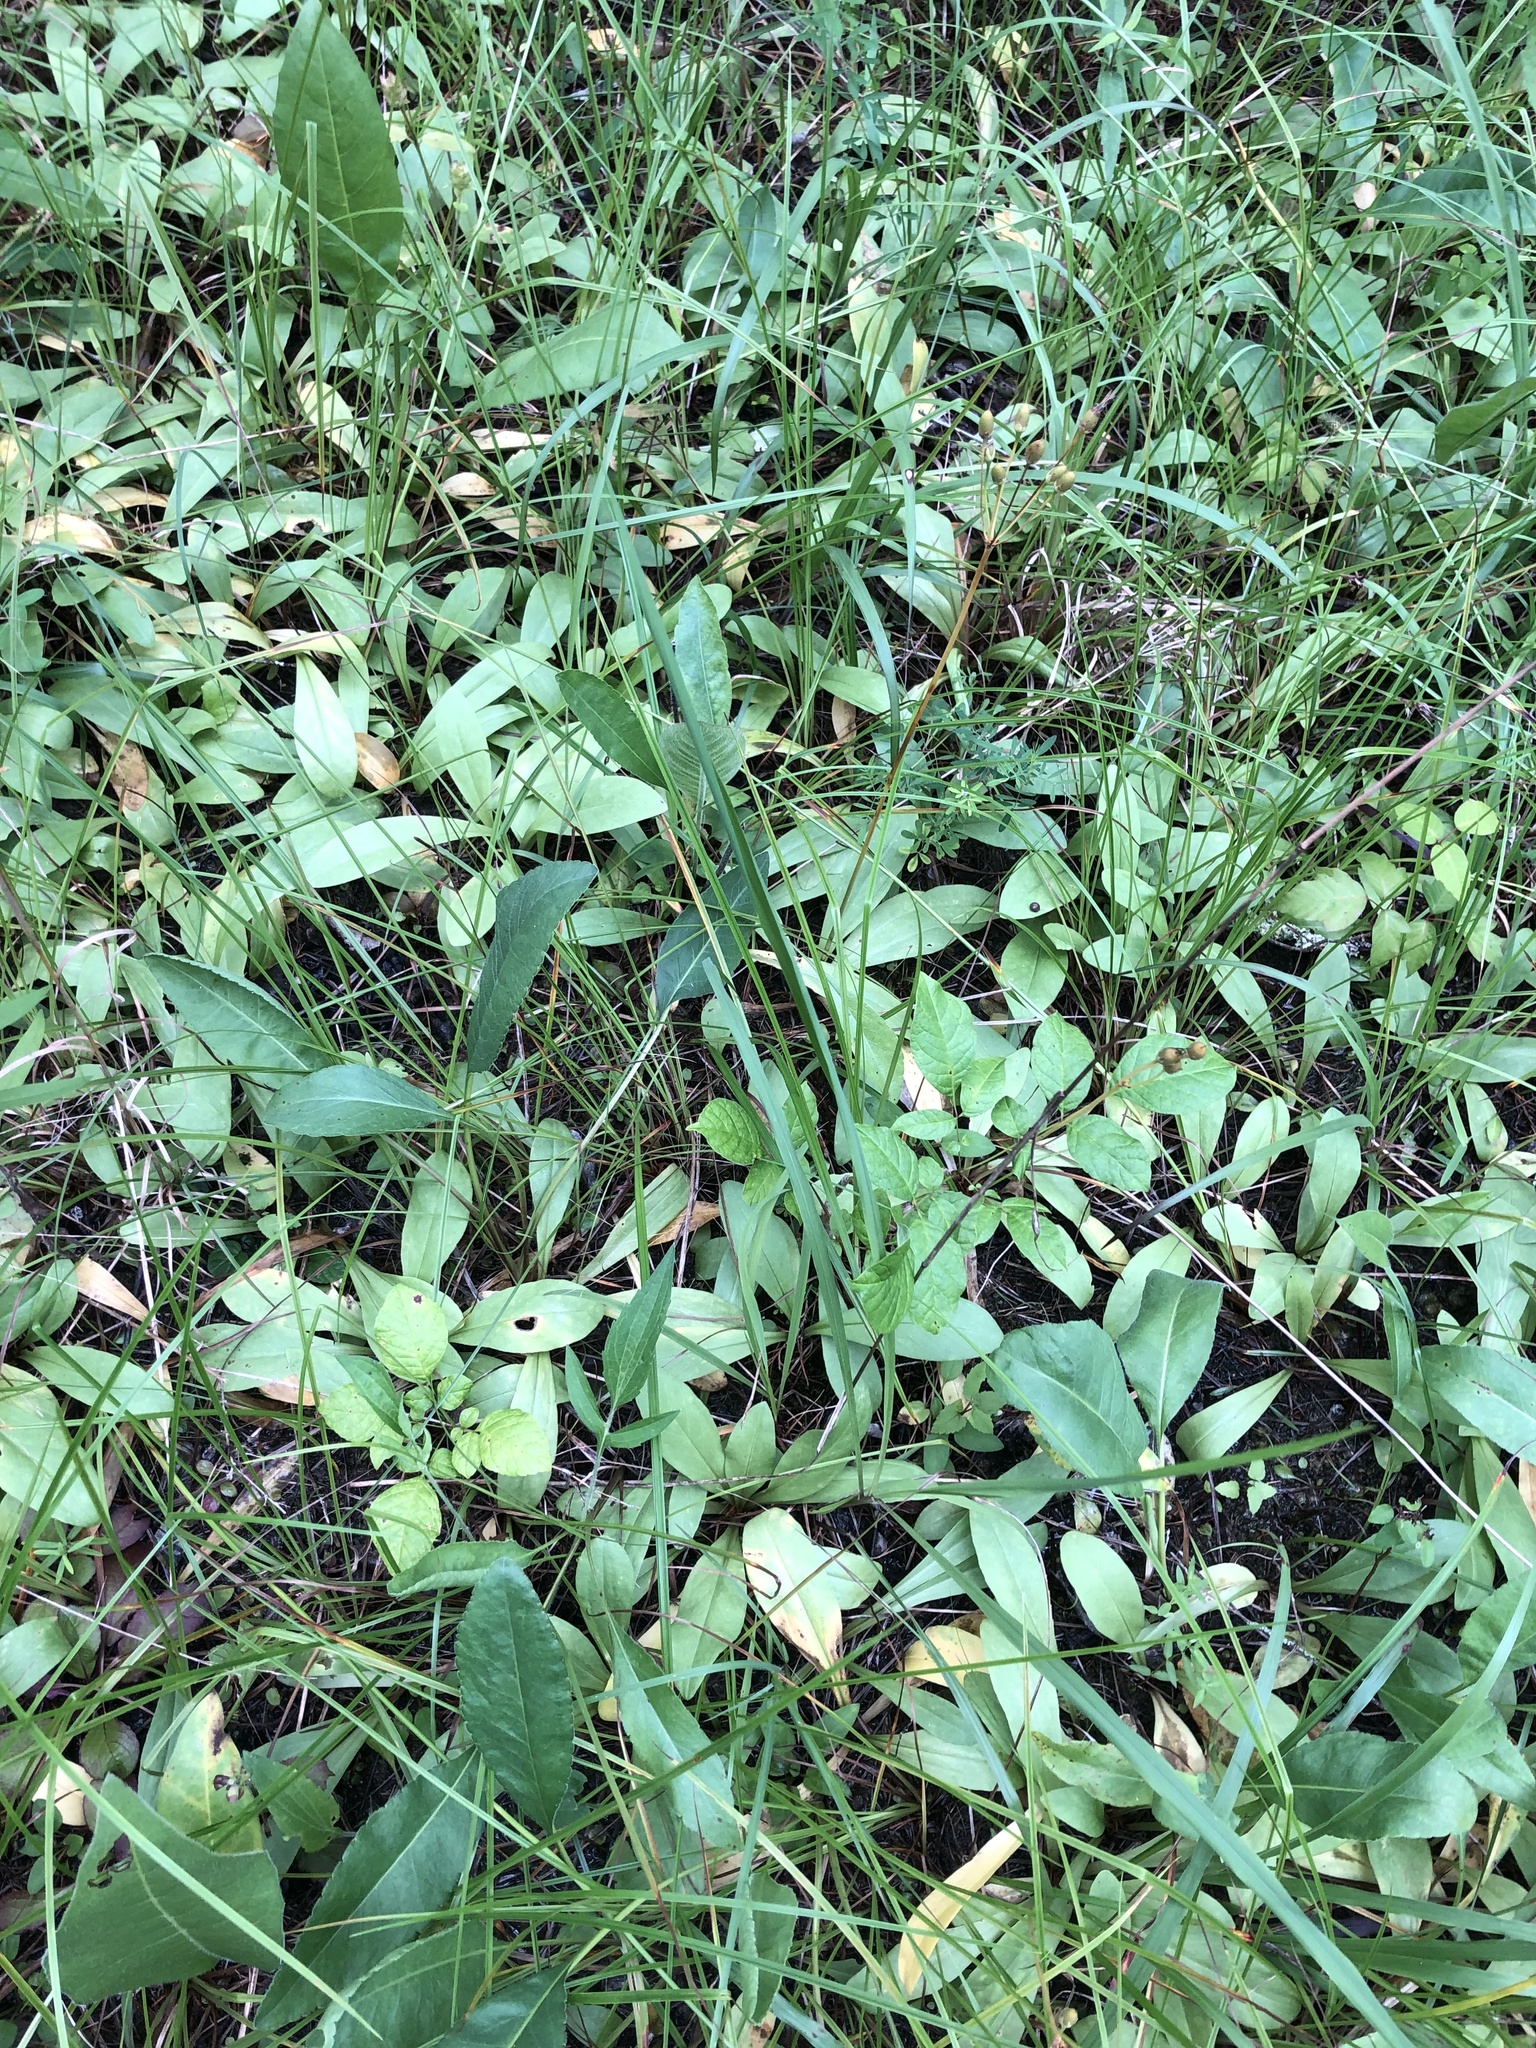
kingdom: Plantae
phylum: Tracheophyta
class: Magnoliopsida
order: Ericales
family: Primulaceae
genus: Dodecatheon
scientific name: Dodecatheon meadia
